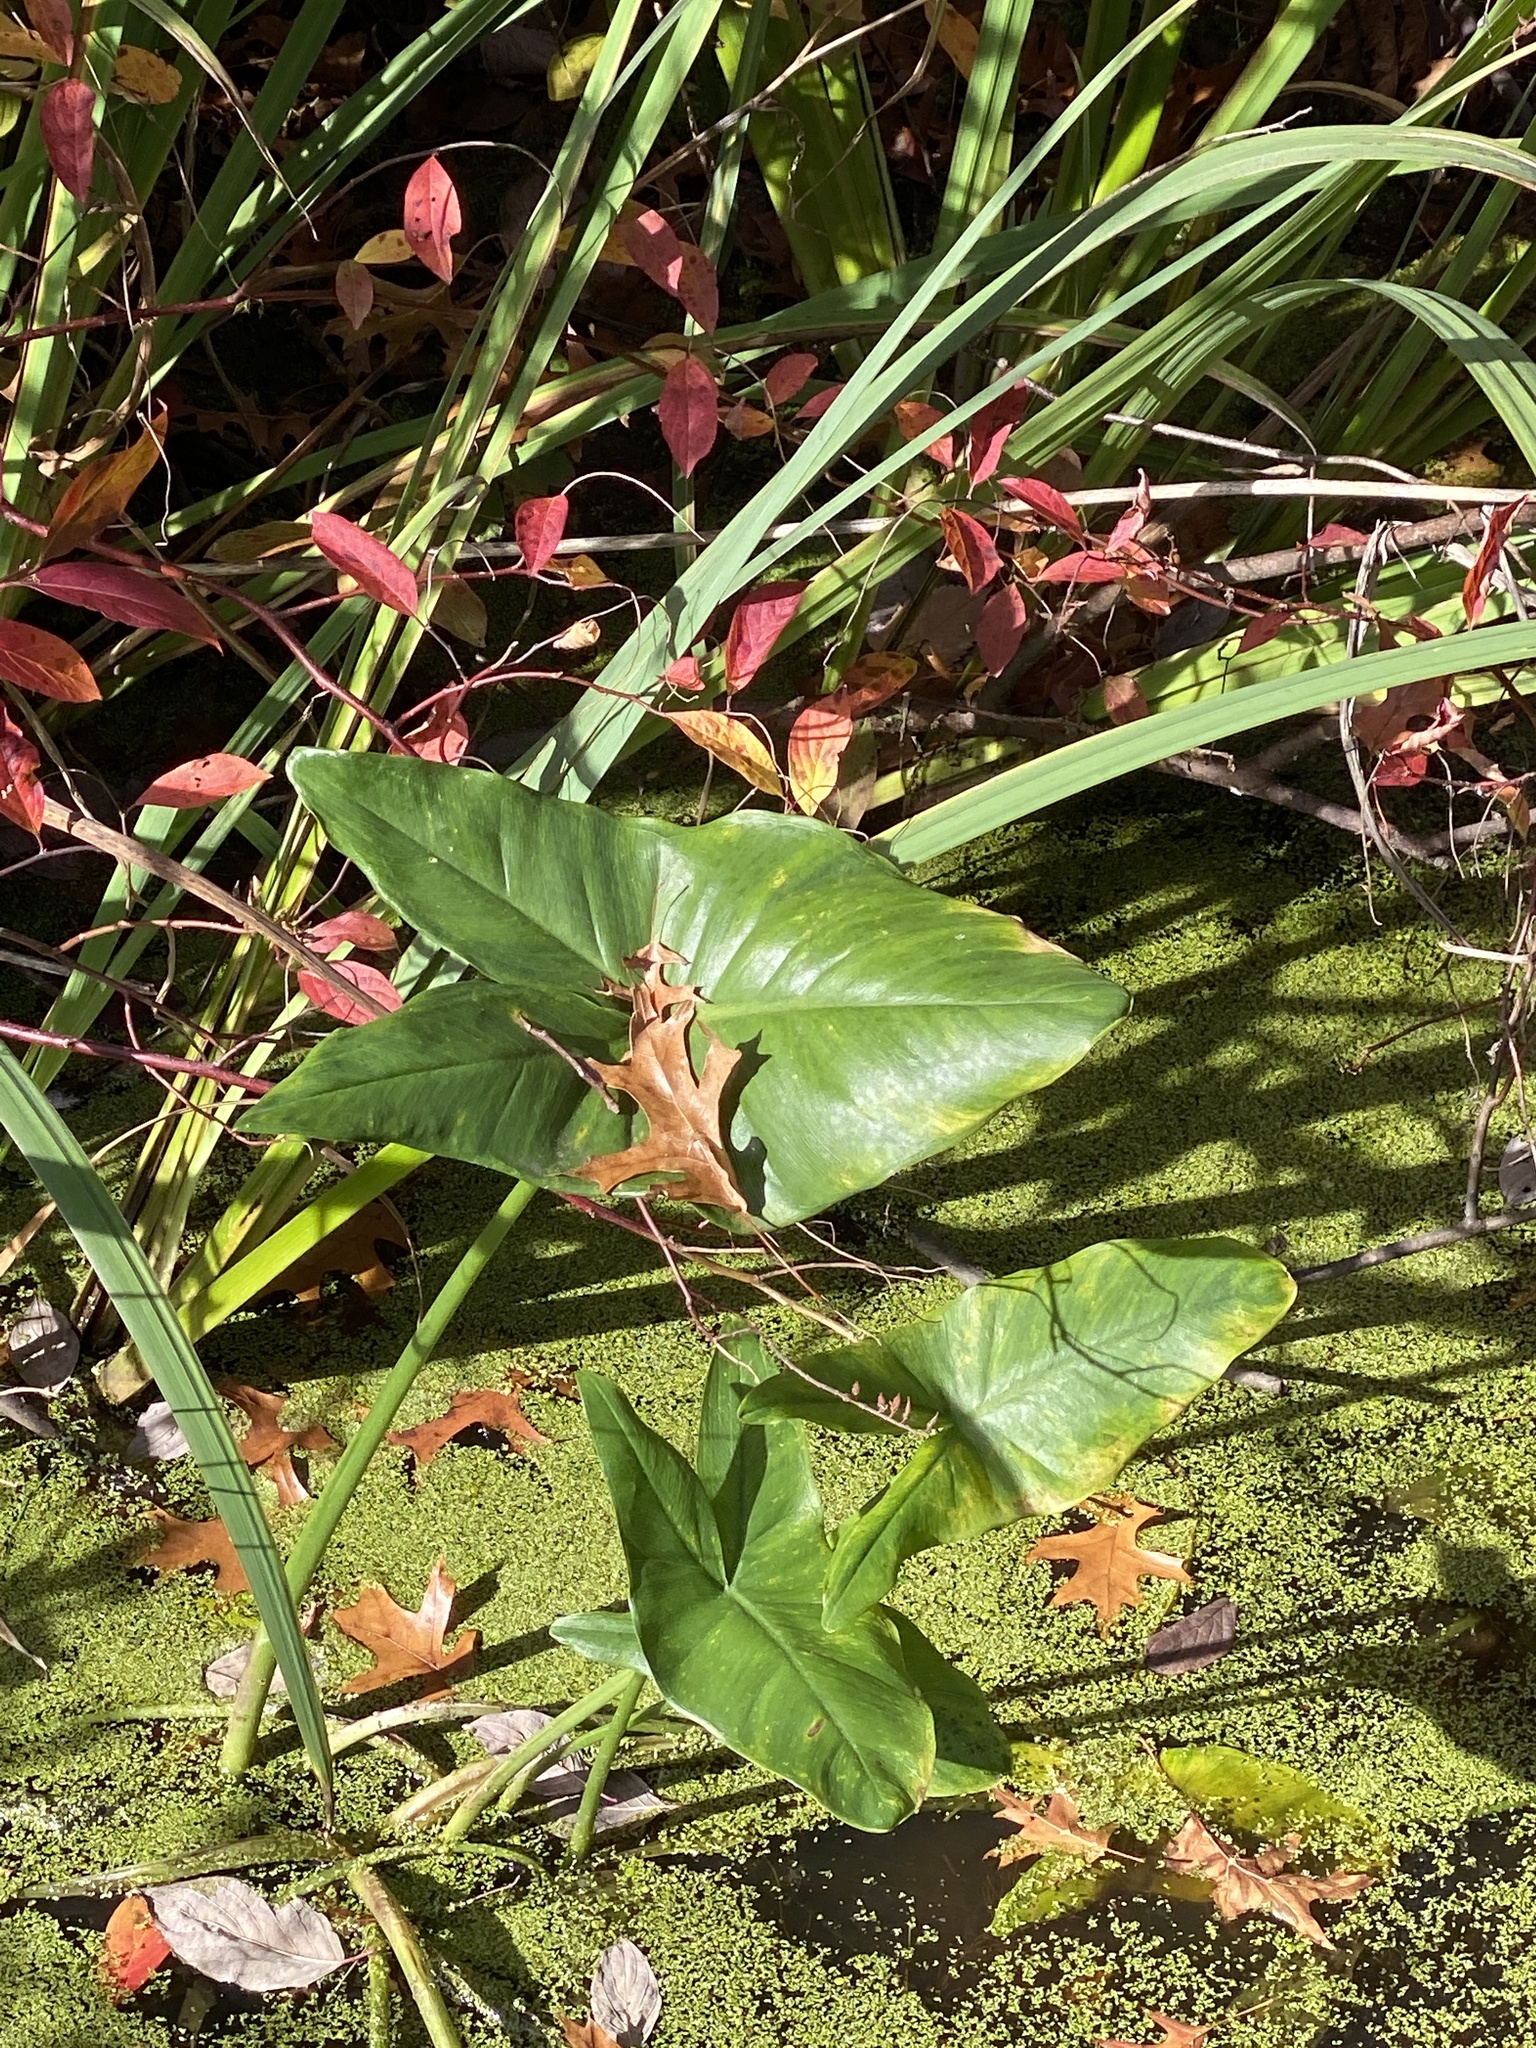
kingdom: Plantae
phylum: Tracheophyta
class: Liliopsida
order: Alismatales
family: Araceae
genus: Peltandra
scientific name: Peltandra virginica
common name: Arrow arum
